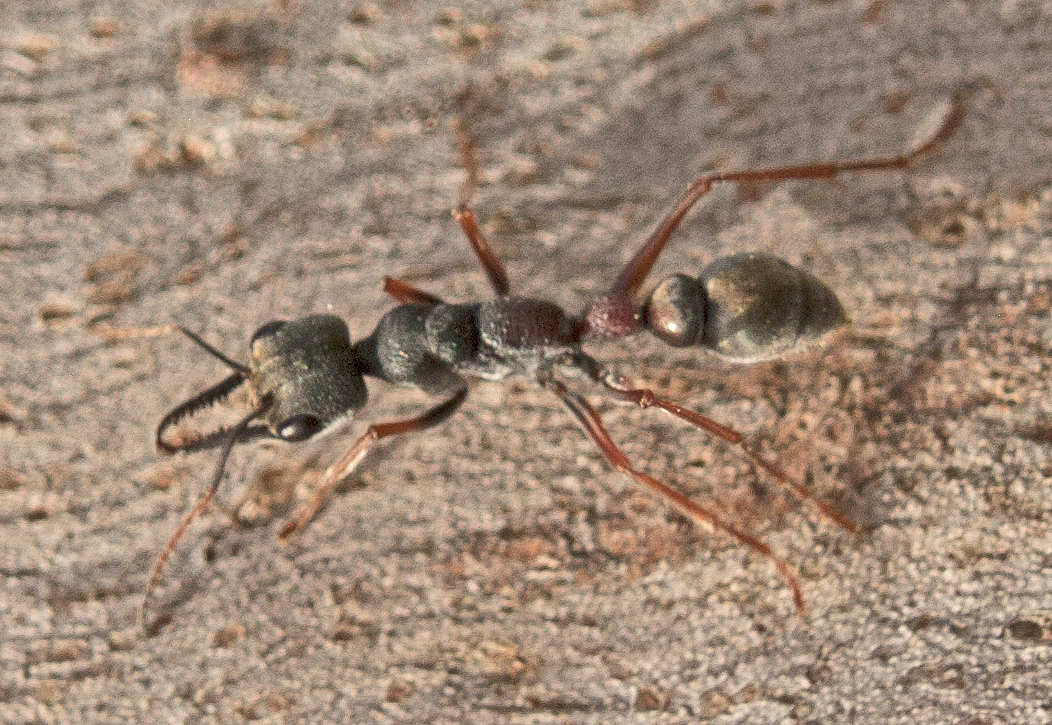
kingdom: Animalia
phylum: Arthropoda
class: Insecta
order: Hymenoptera
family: Formicidae
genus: Myrmecia
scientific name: Myrmecia varians
